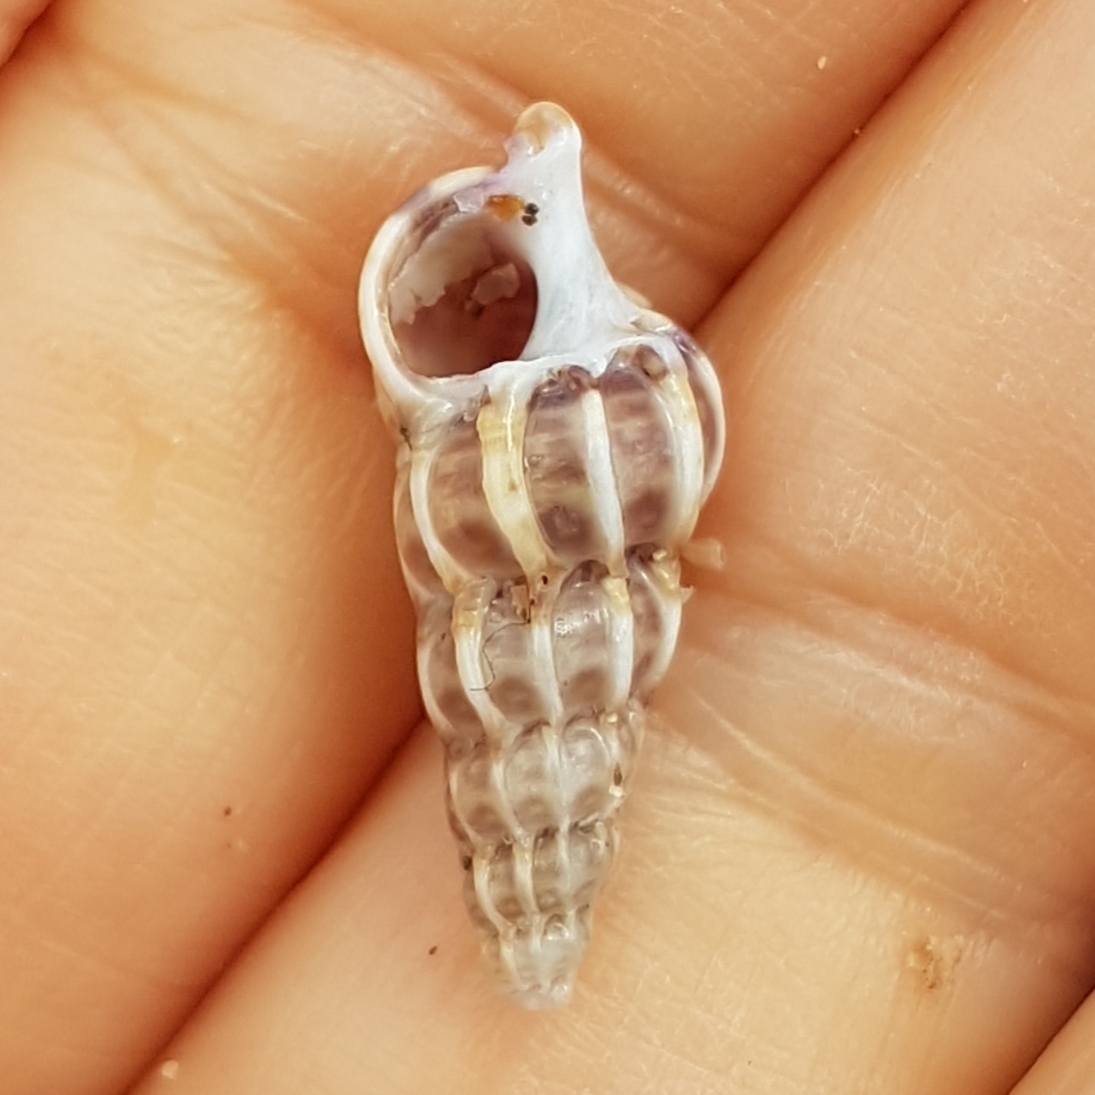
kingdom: Animalia
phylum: Mollusca
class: Gastropoda
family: Epitoniidae
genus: Epitonium
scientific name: Epitonium clathrus
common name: Common wentletrap
